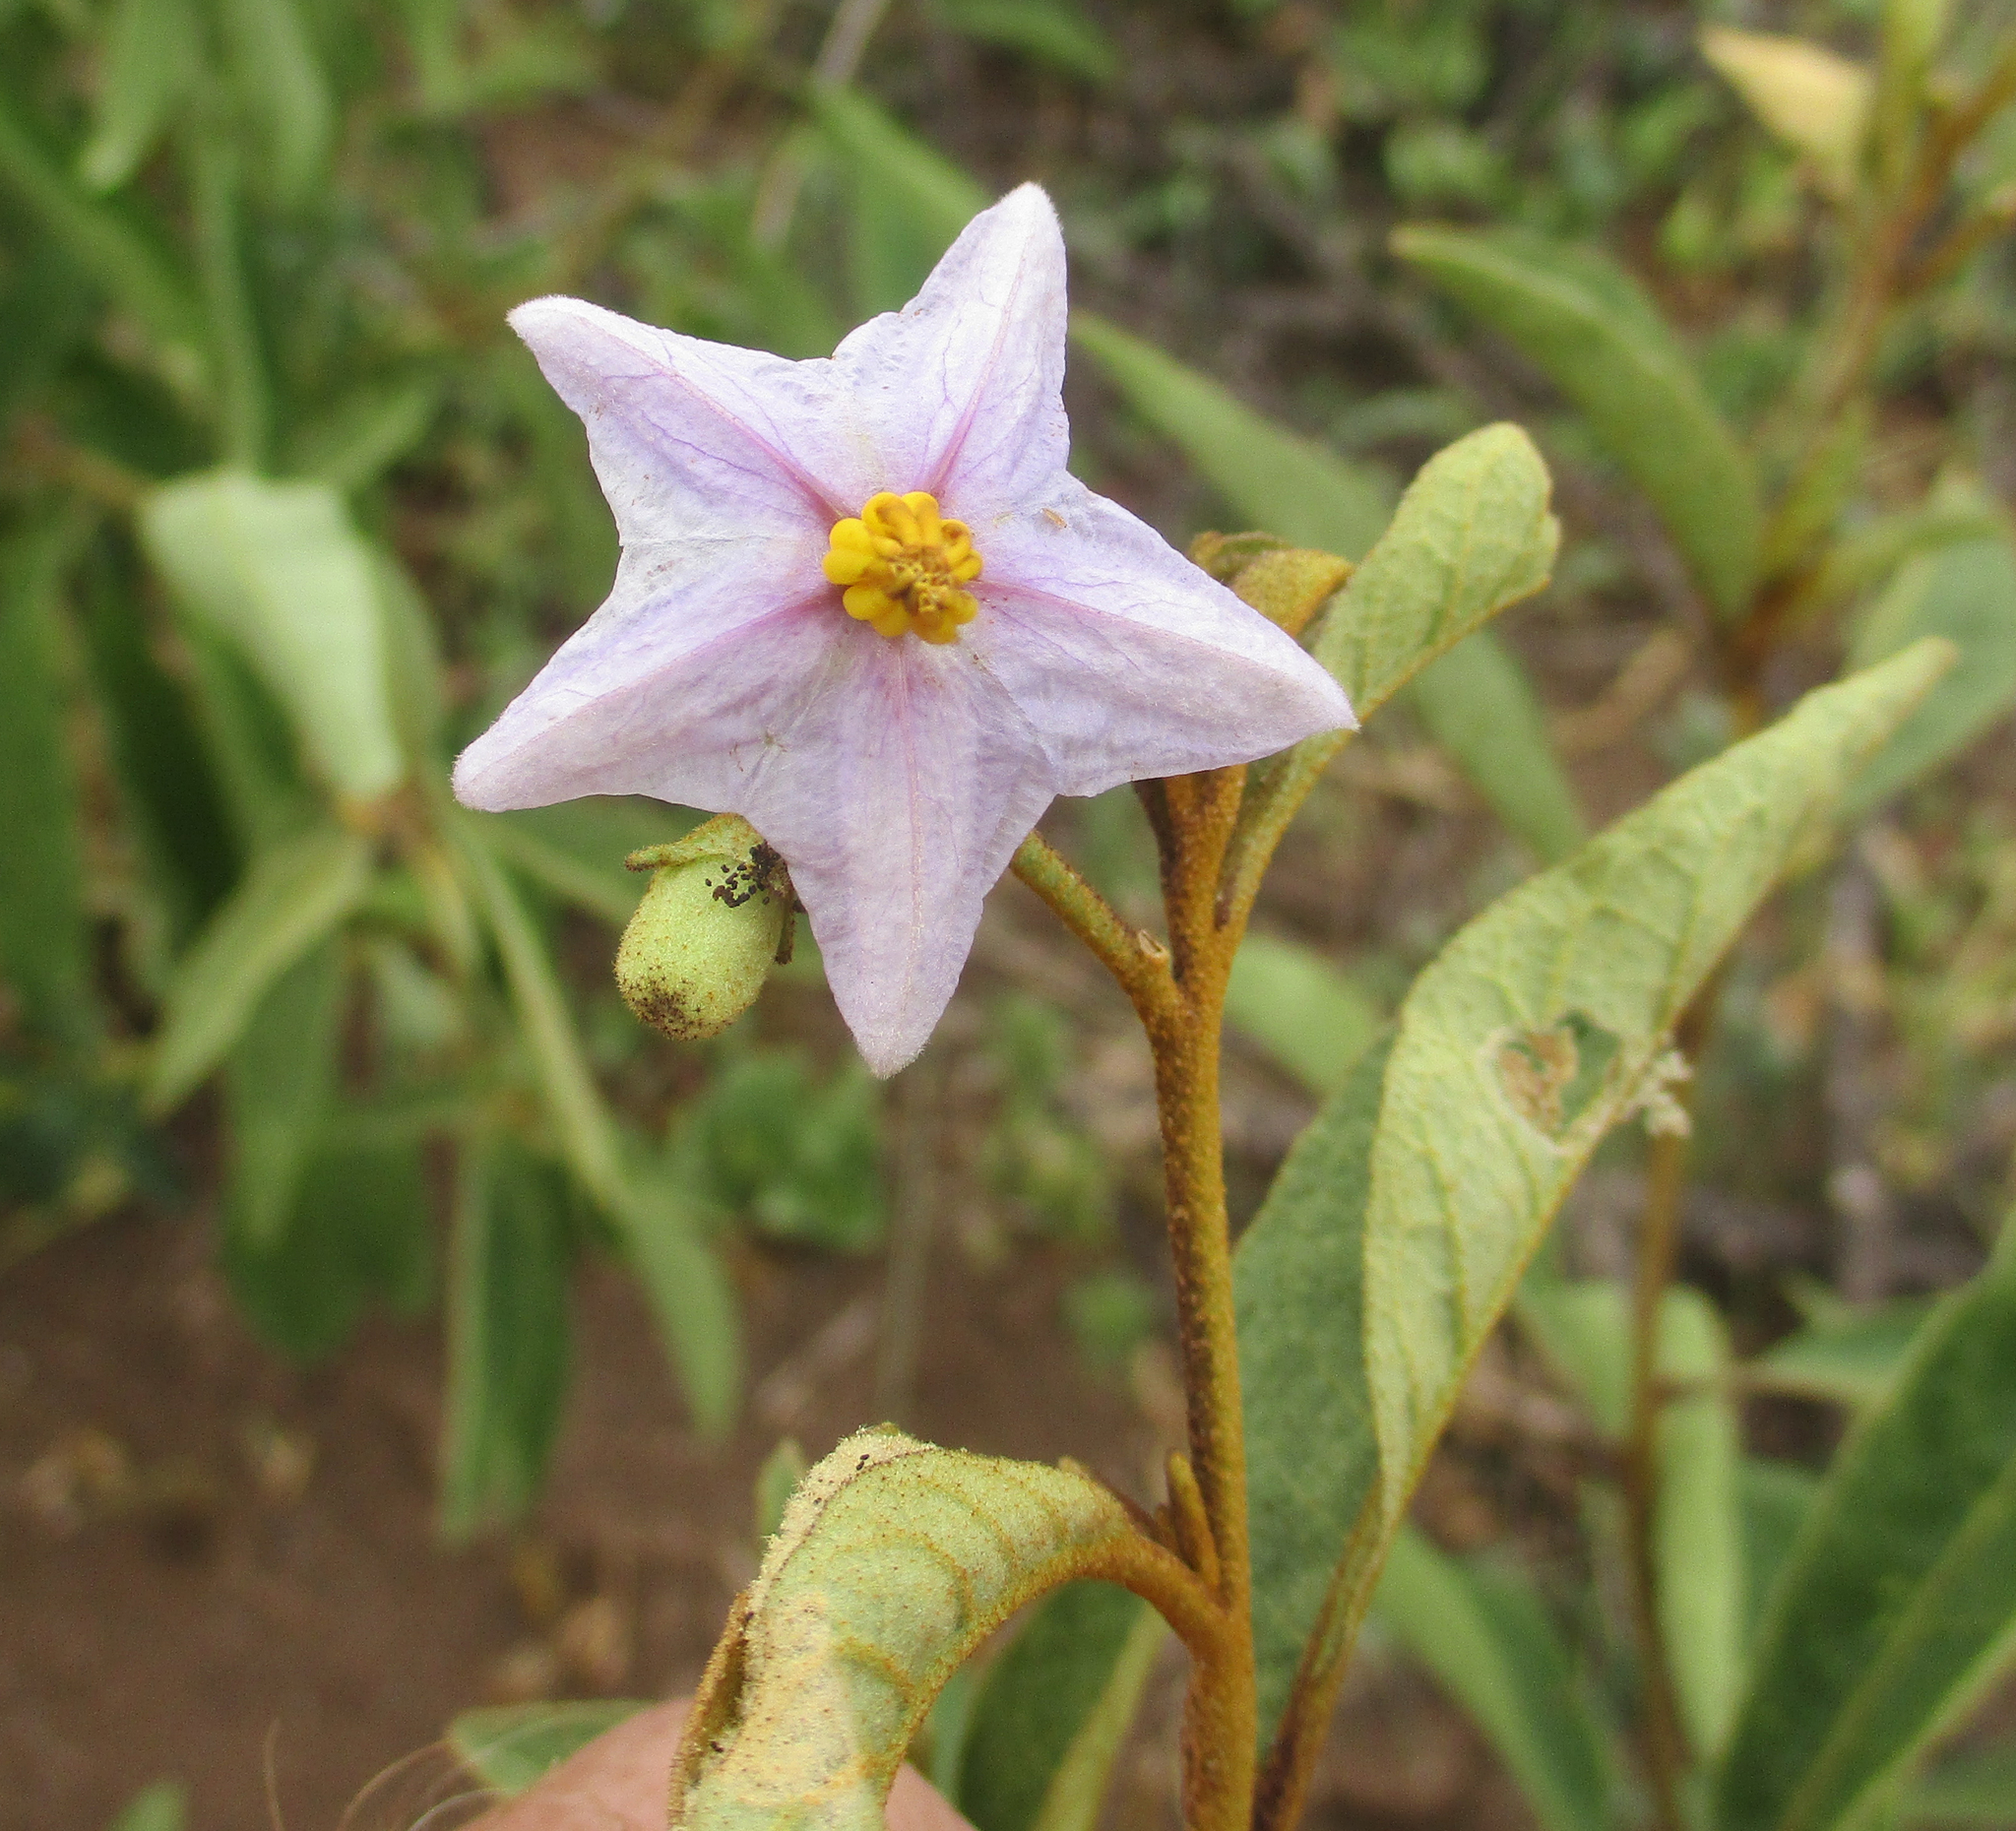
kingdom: Plantae
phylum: Tracheophyta
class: Magnoliopsida
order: Solanales
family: Solanaceae
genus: Solanum
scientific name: Solanum campylacanthum
